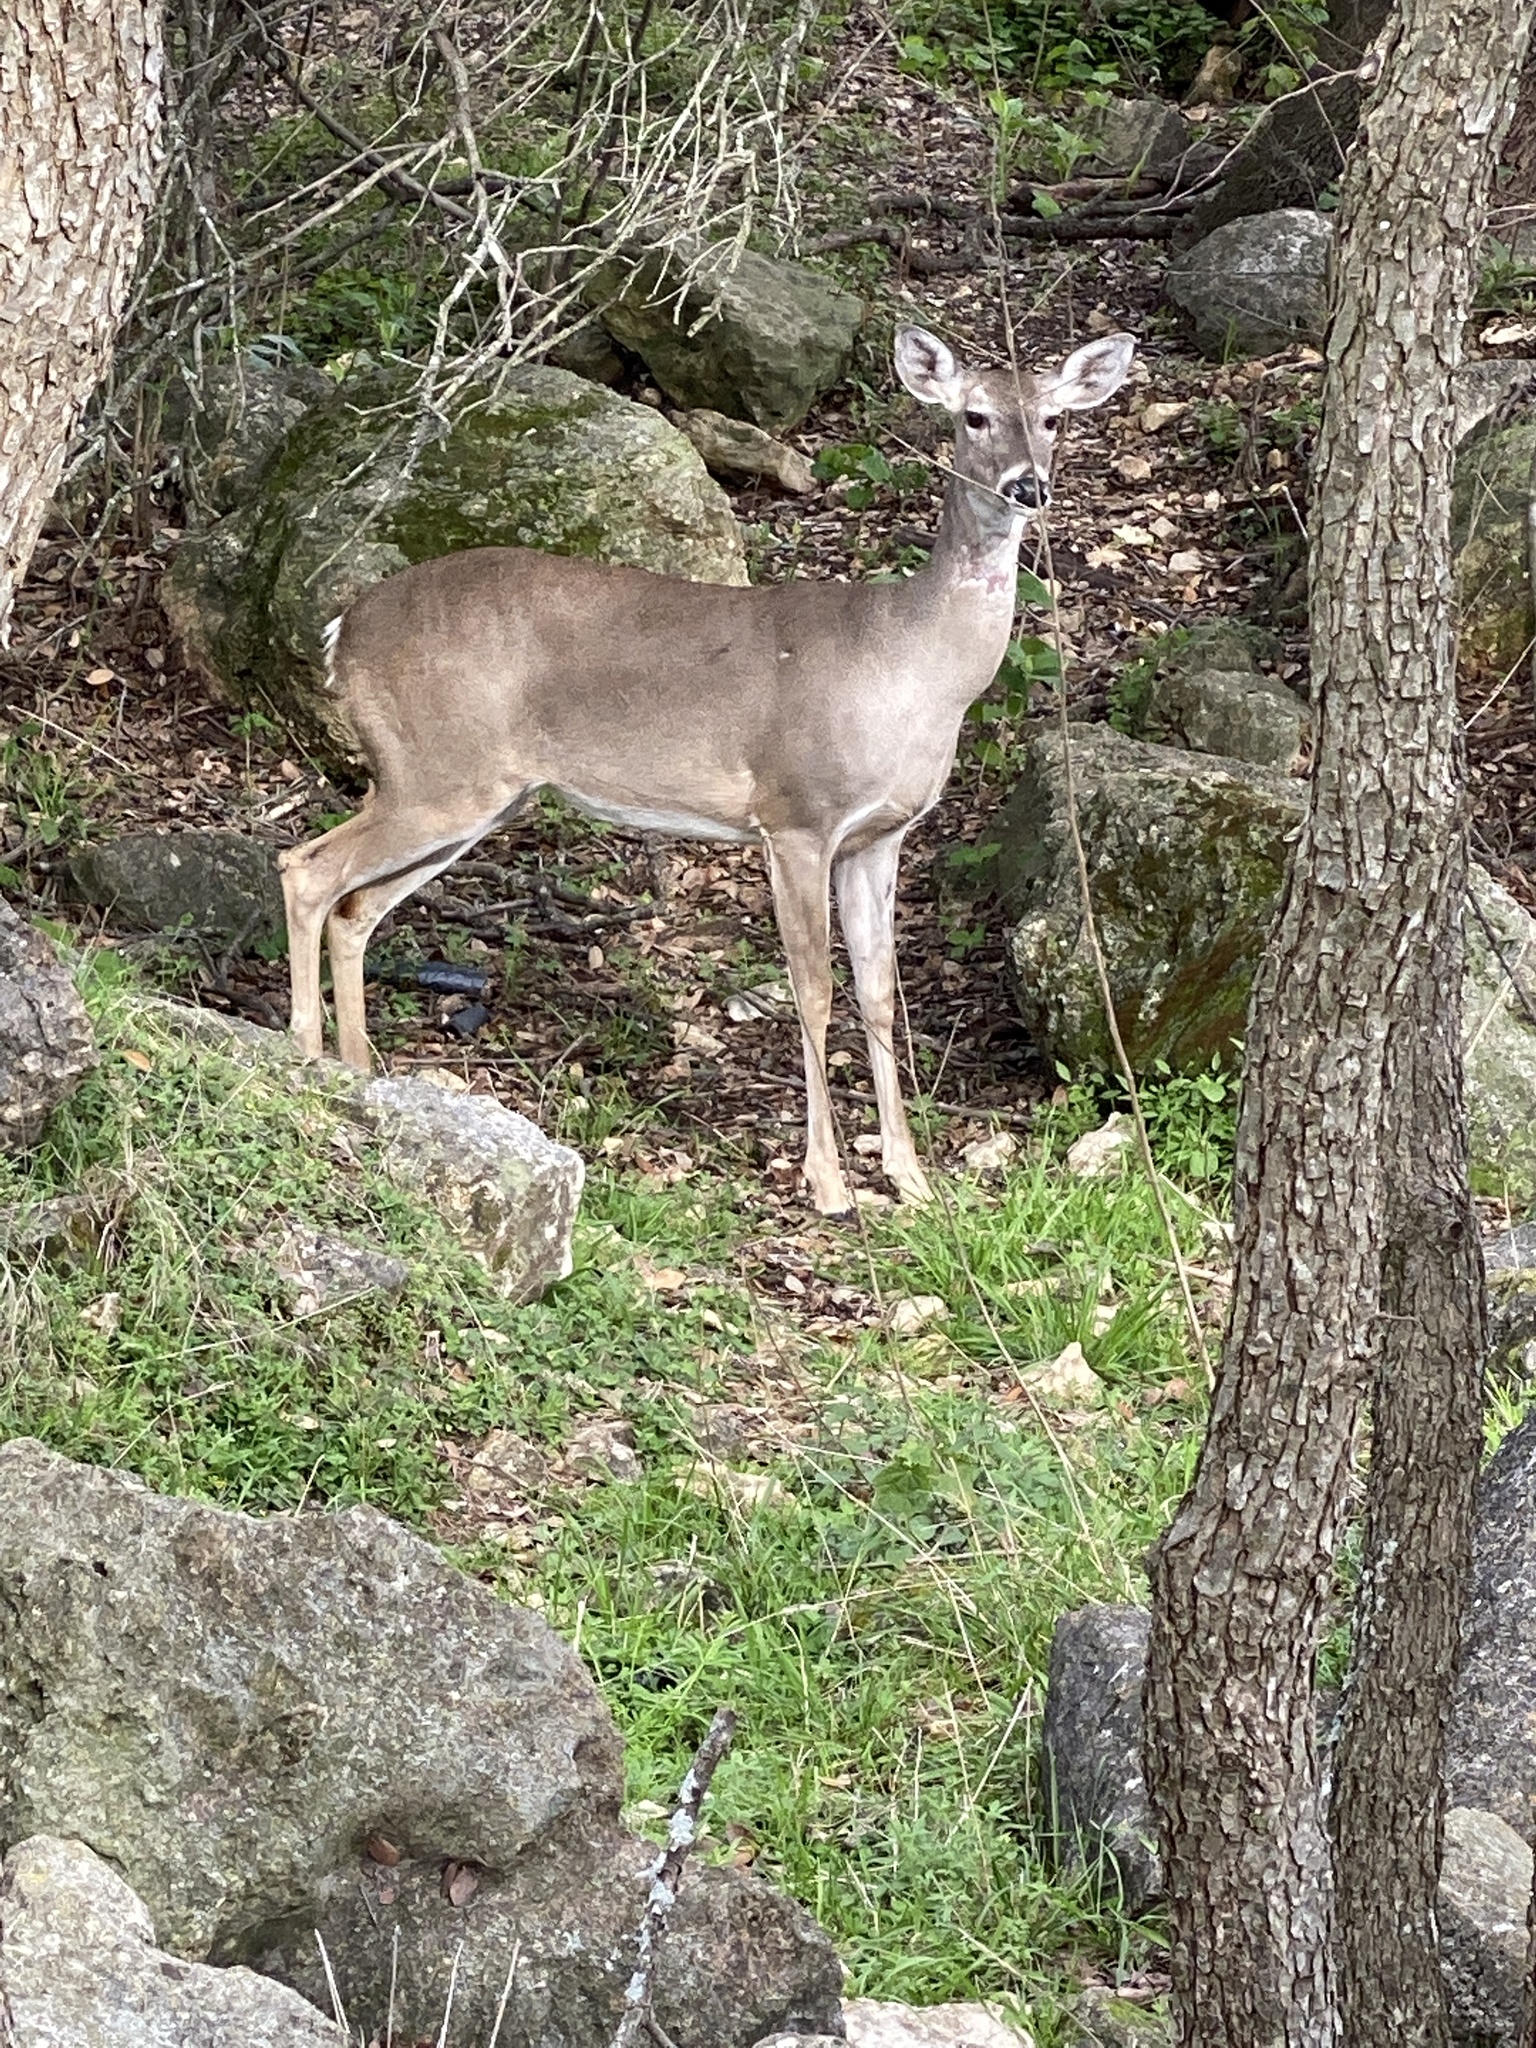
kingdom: Animalia
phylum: Chordata
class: Mammalia
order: Artiodactyla
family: Cervidae
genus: Odocoileus
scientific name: Odocoileus virginianus
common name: White-tailed deer
